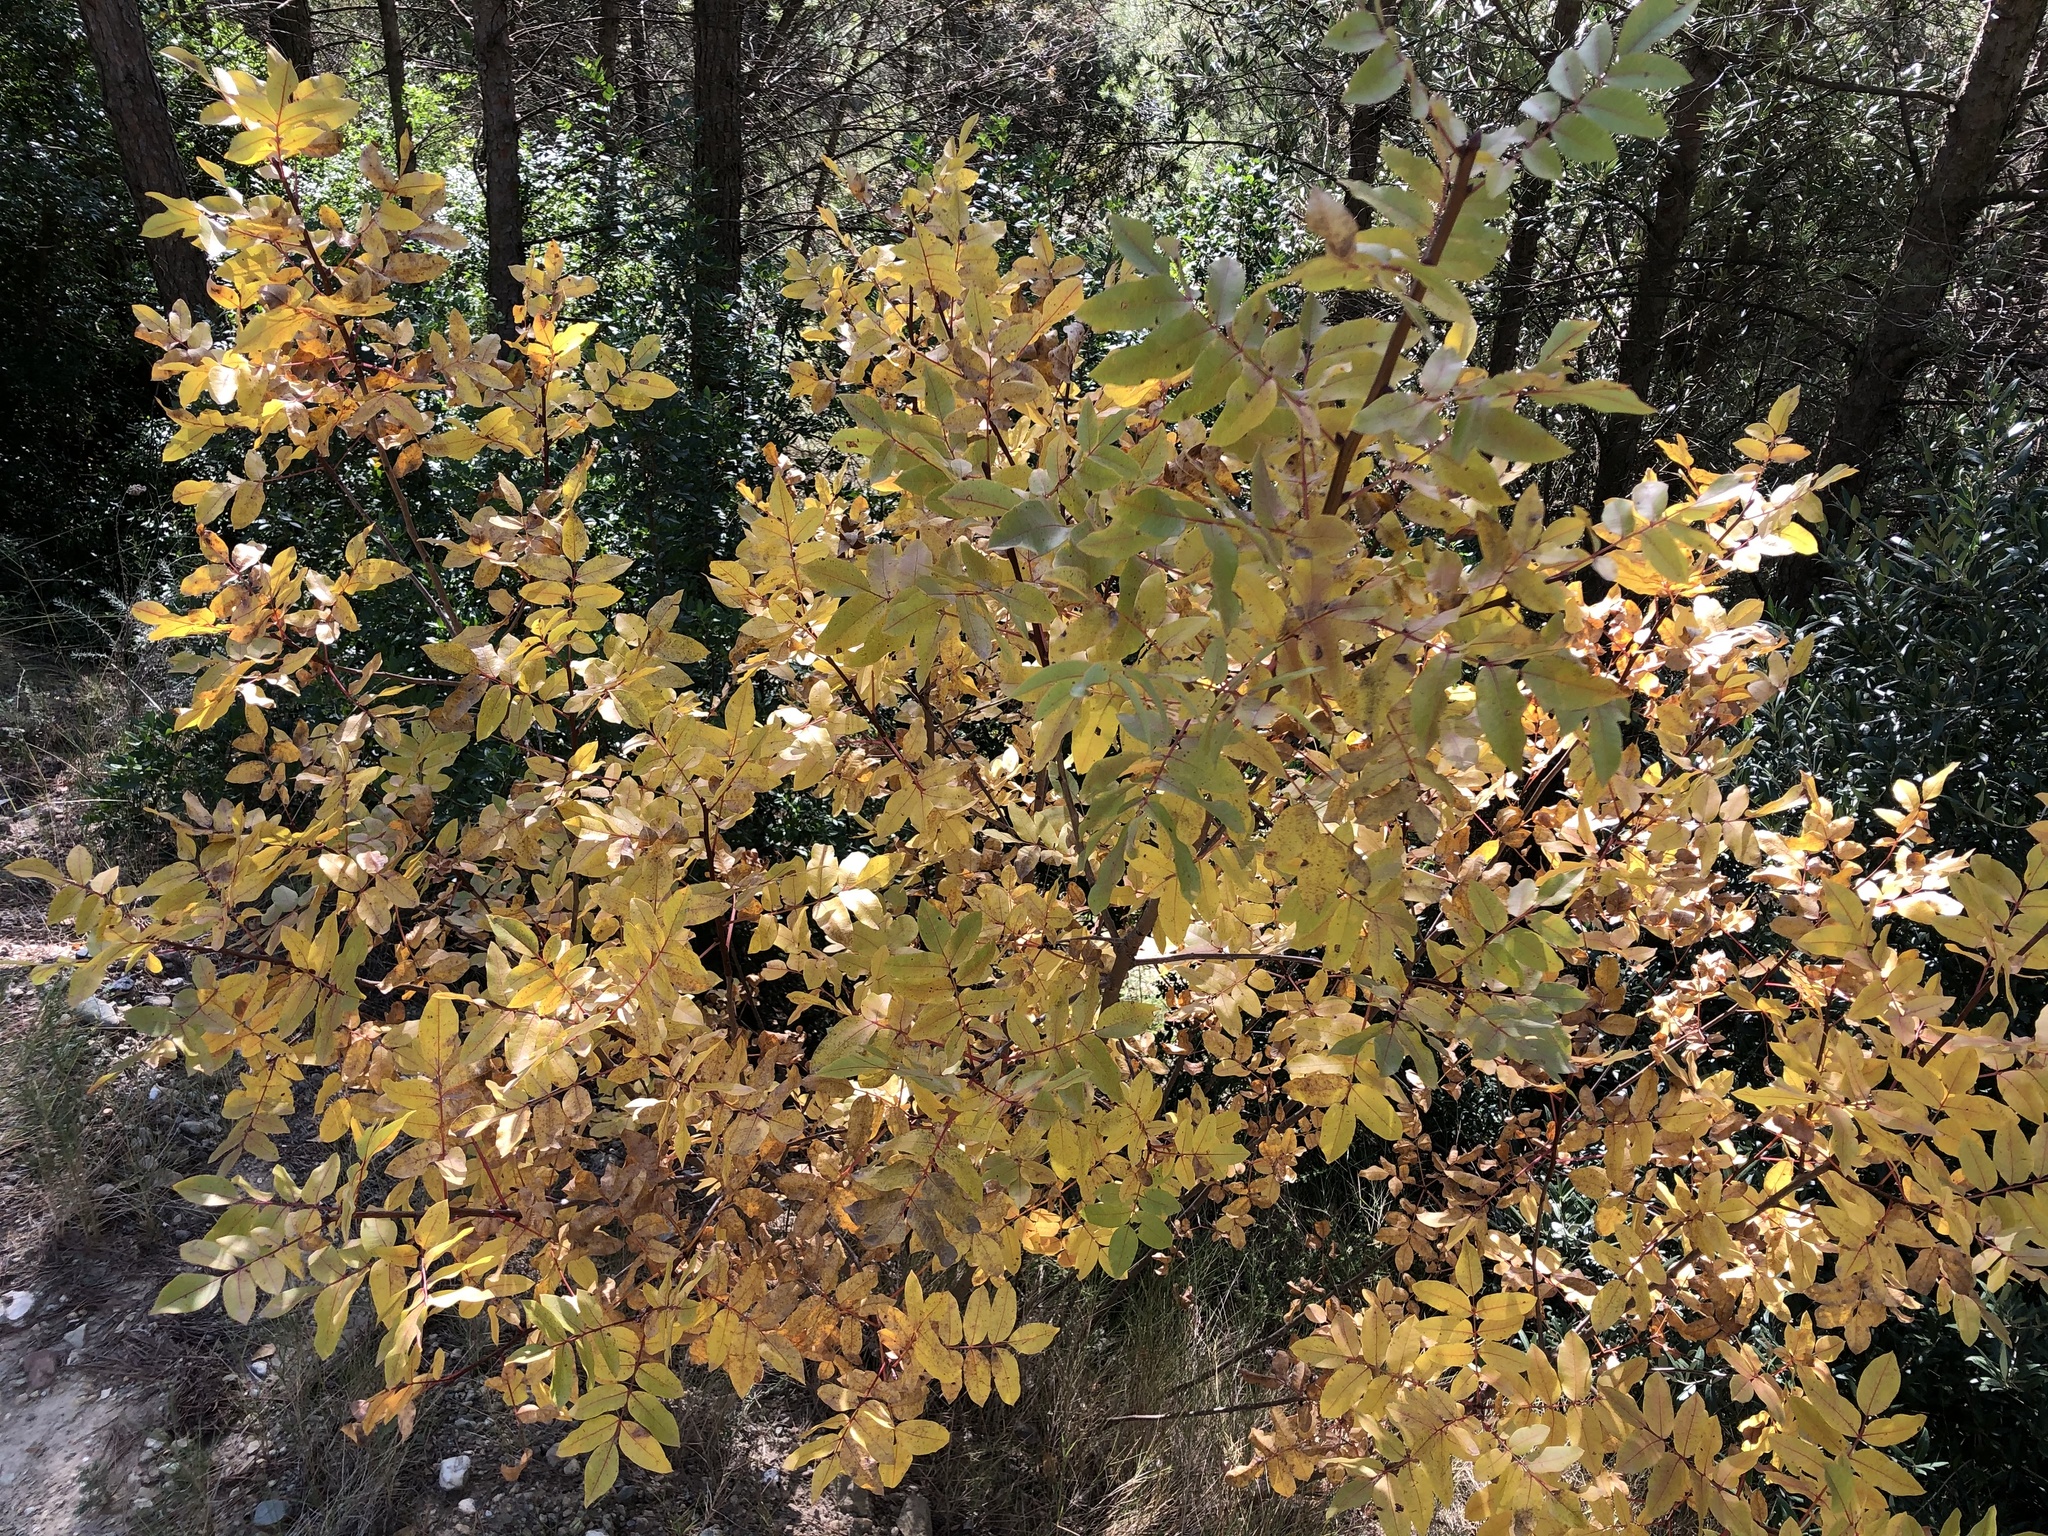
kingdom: Plantae
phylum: Tracheophyta
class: Magnoliopsida
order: Sapindales
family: Anacardiaceae
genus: Pistacia
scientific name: Pistacia terebinthus
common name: Terebinth
